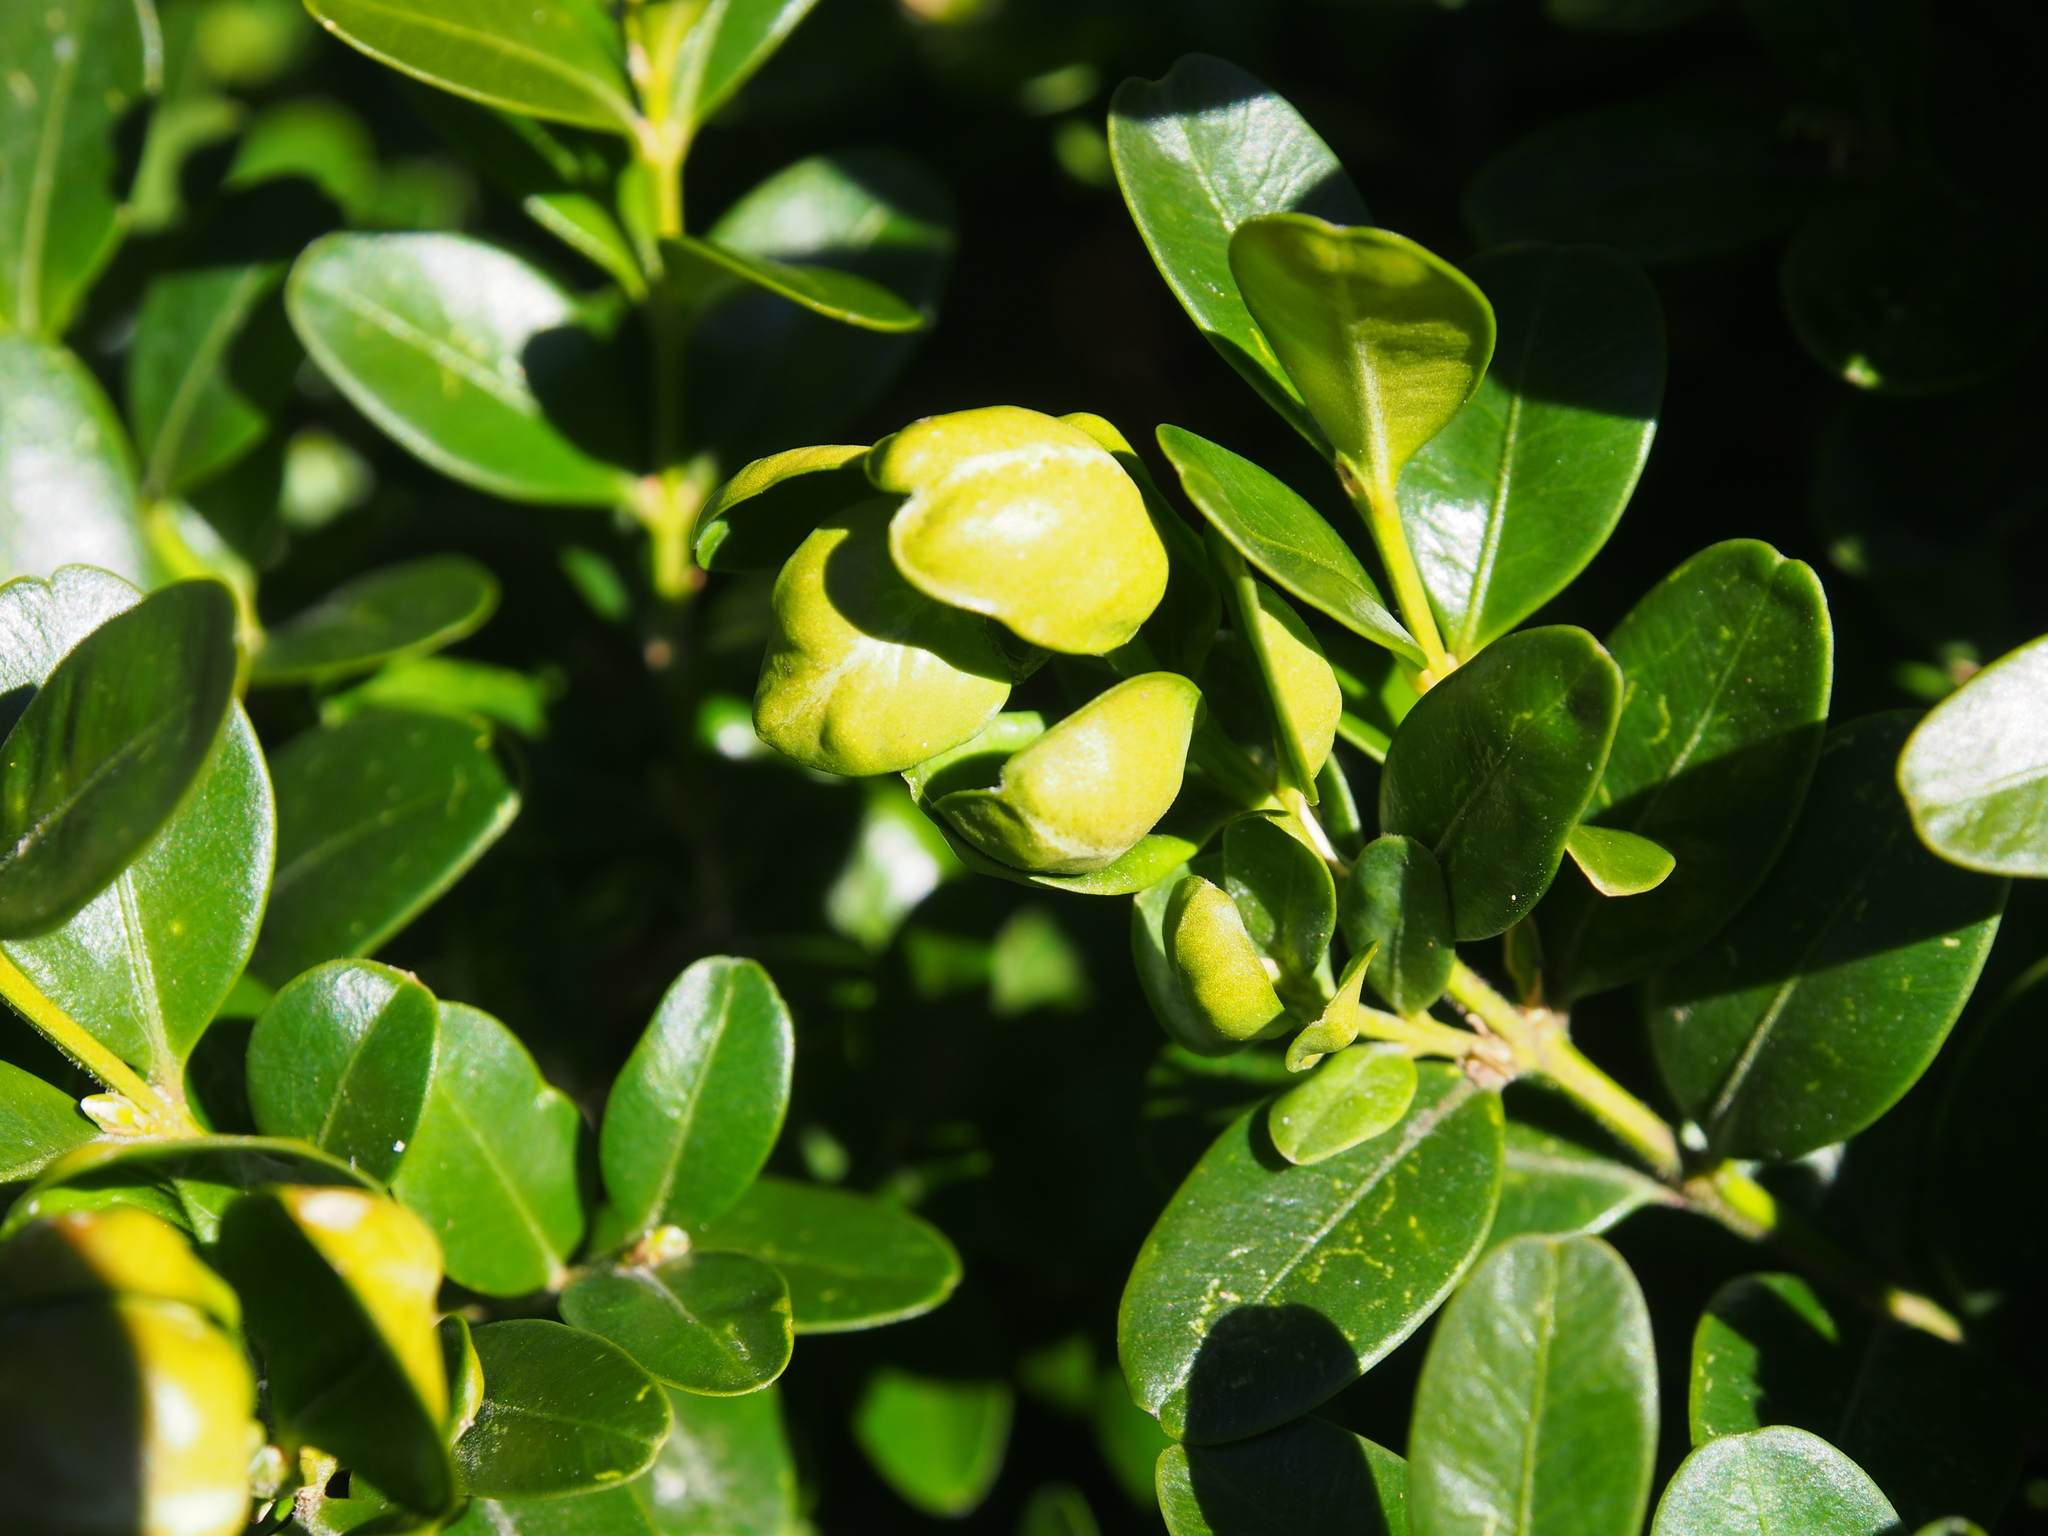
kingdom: Animalia
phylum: Arthropoda
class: Insecta
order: Hemiptera
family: Psyllidae
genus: Psylla
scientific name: Psylla buxi
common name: Boxwood psyllid
